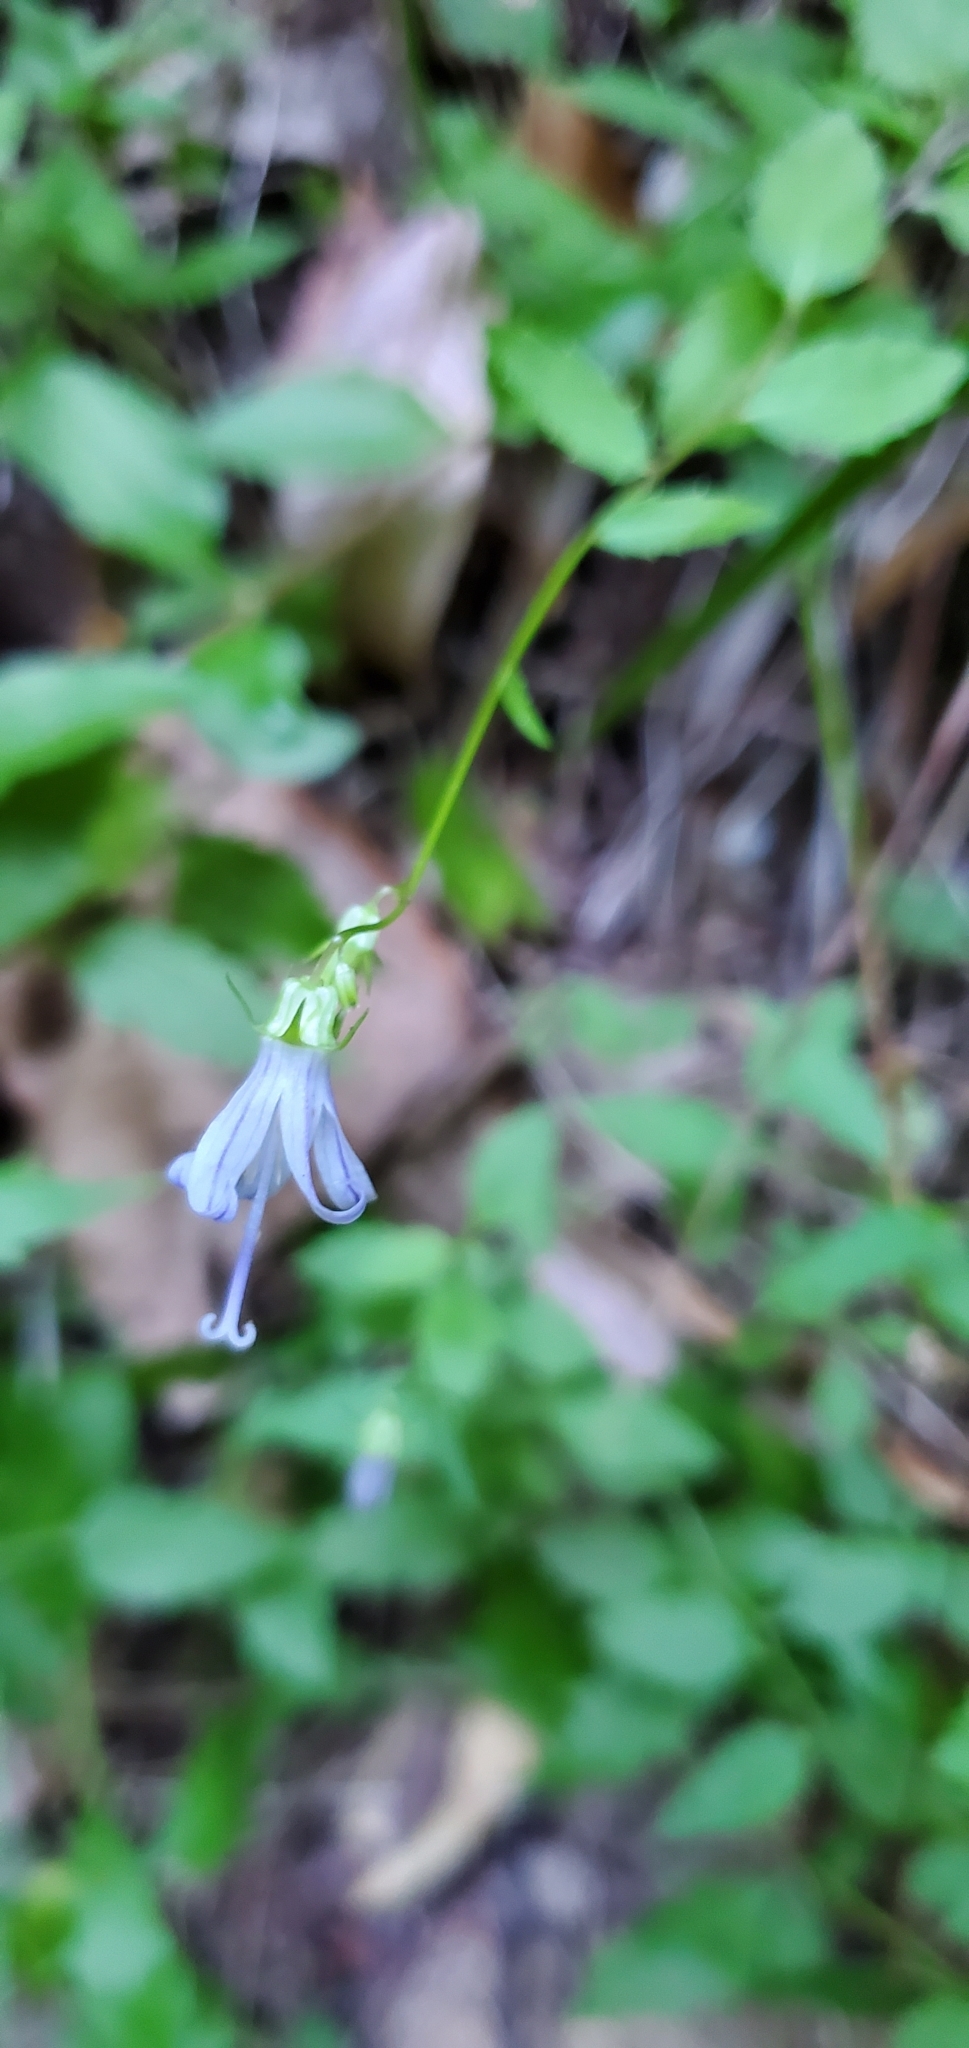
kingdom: Plantae
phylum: Tracheophyta
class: Magnoliopsida
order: Asterales
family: Campanulaceae
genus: Smithiastrum
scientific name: Smithiastrum prenanthoides
